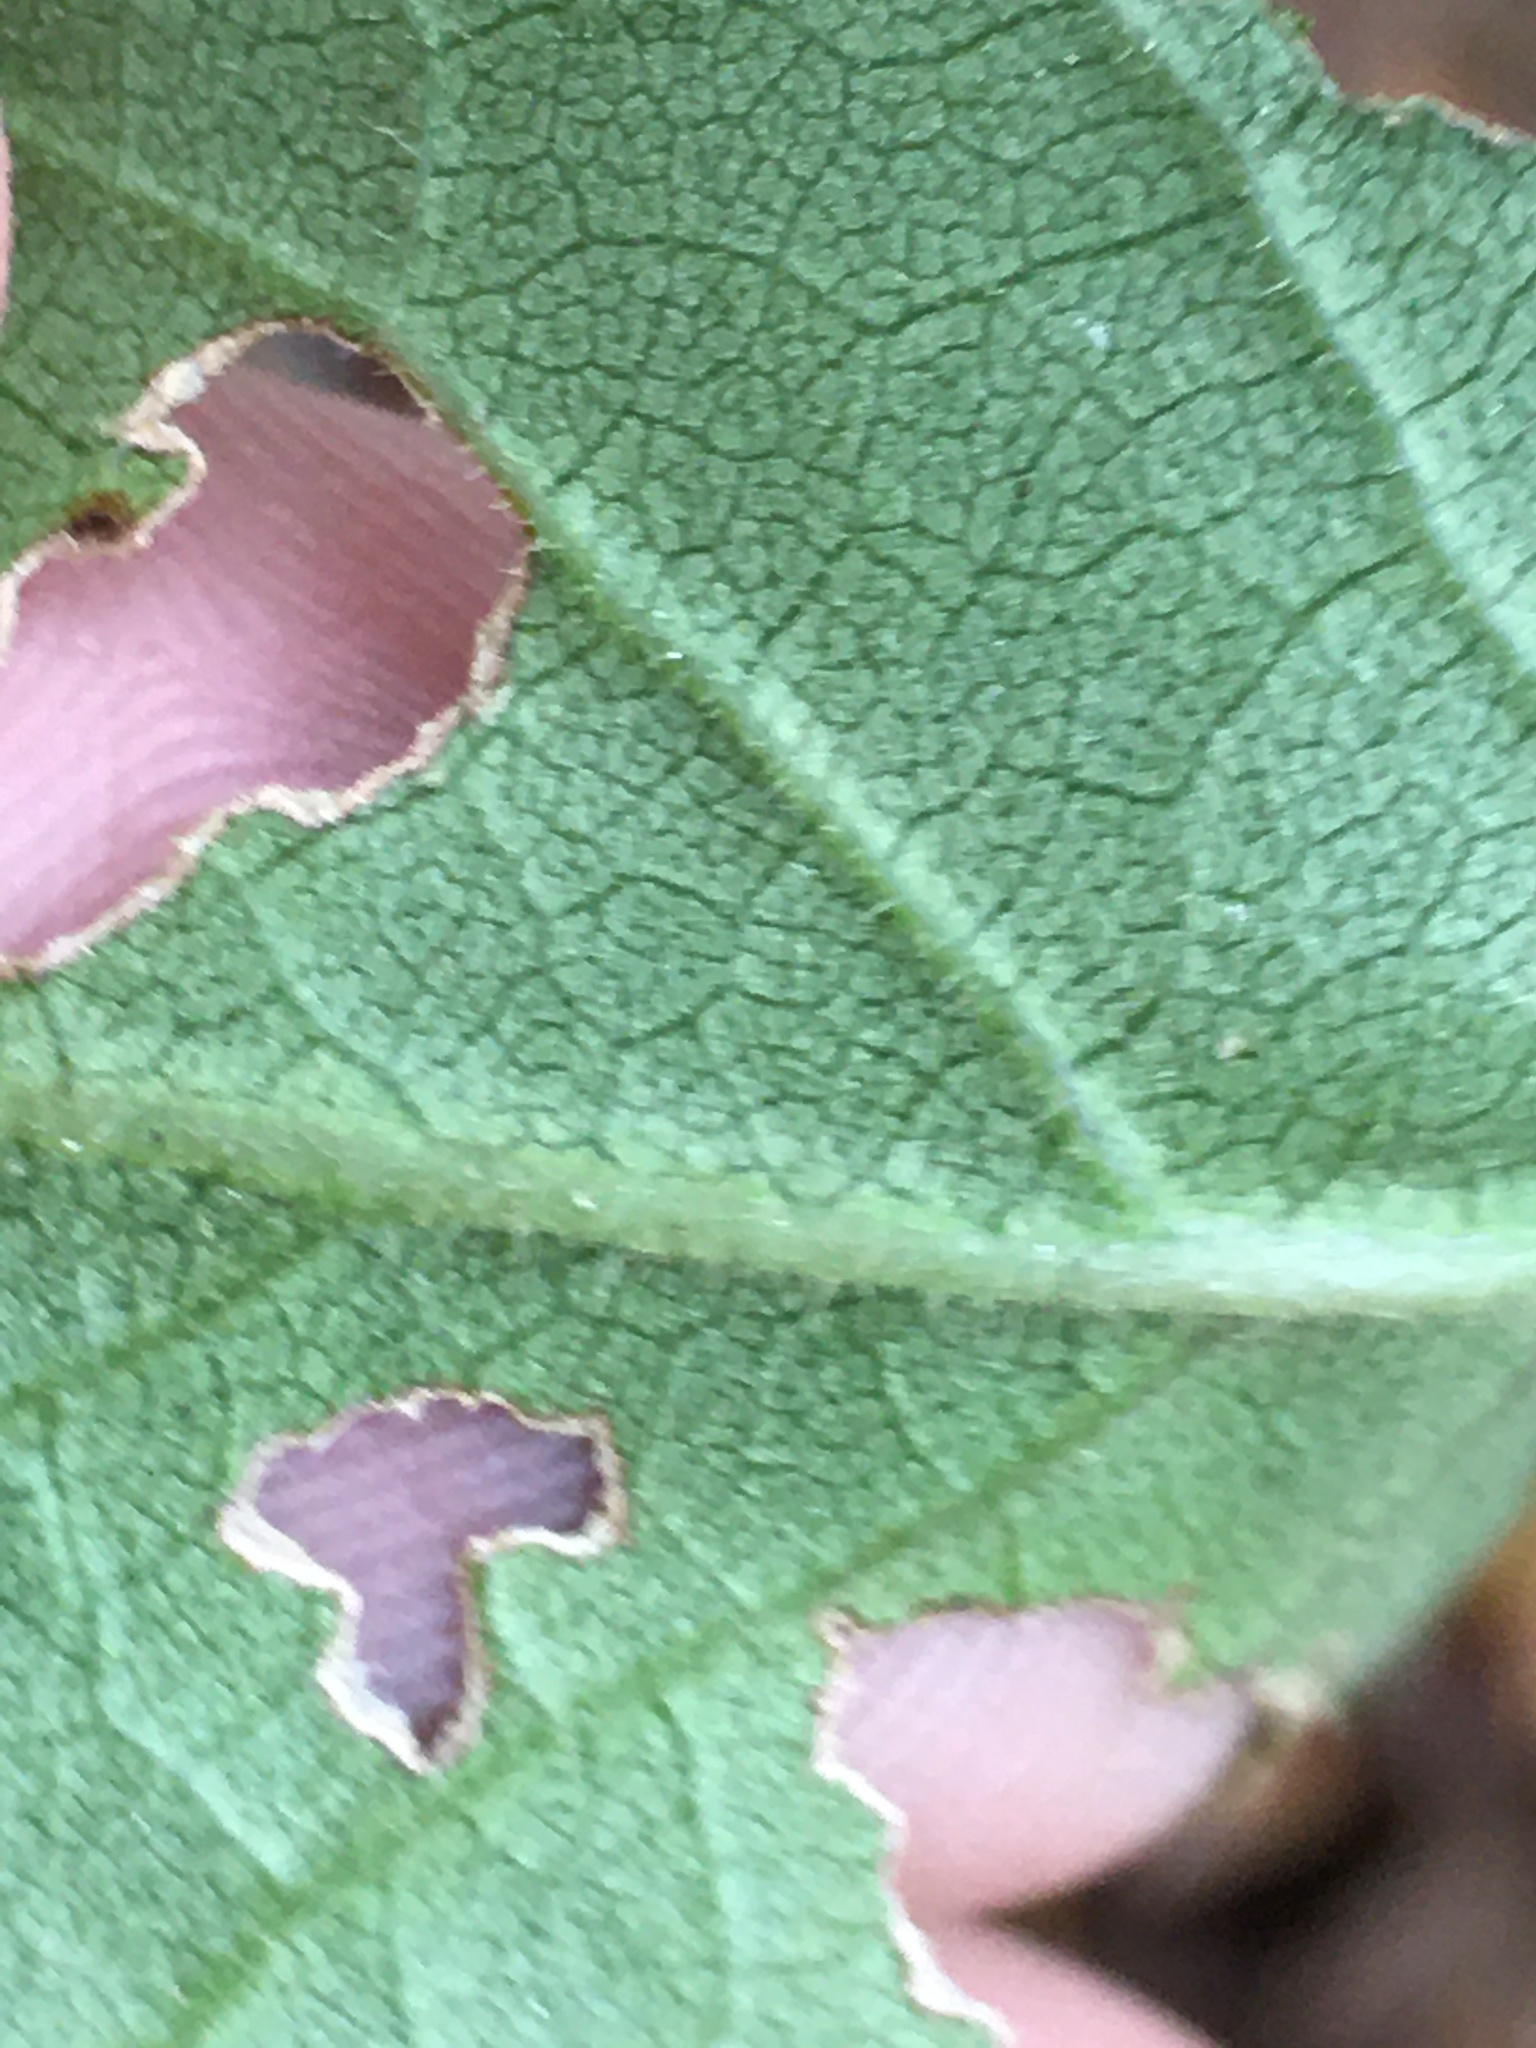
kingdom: Plantae
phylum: Tracheophyta
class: Magnoliopsida
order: Asterales
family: Asteraceae
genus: Eurybia
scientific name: Eurybia mirabilis
